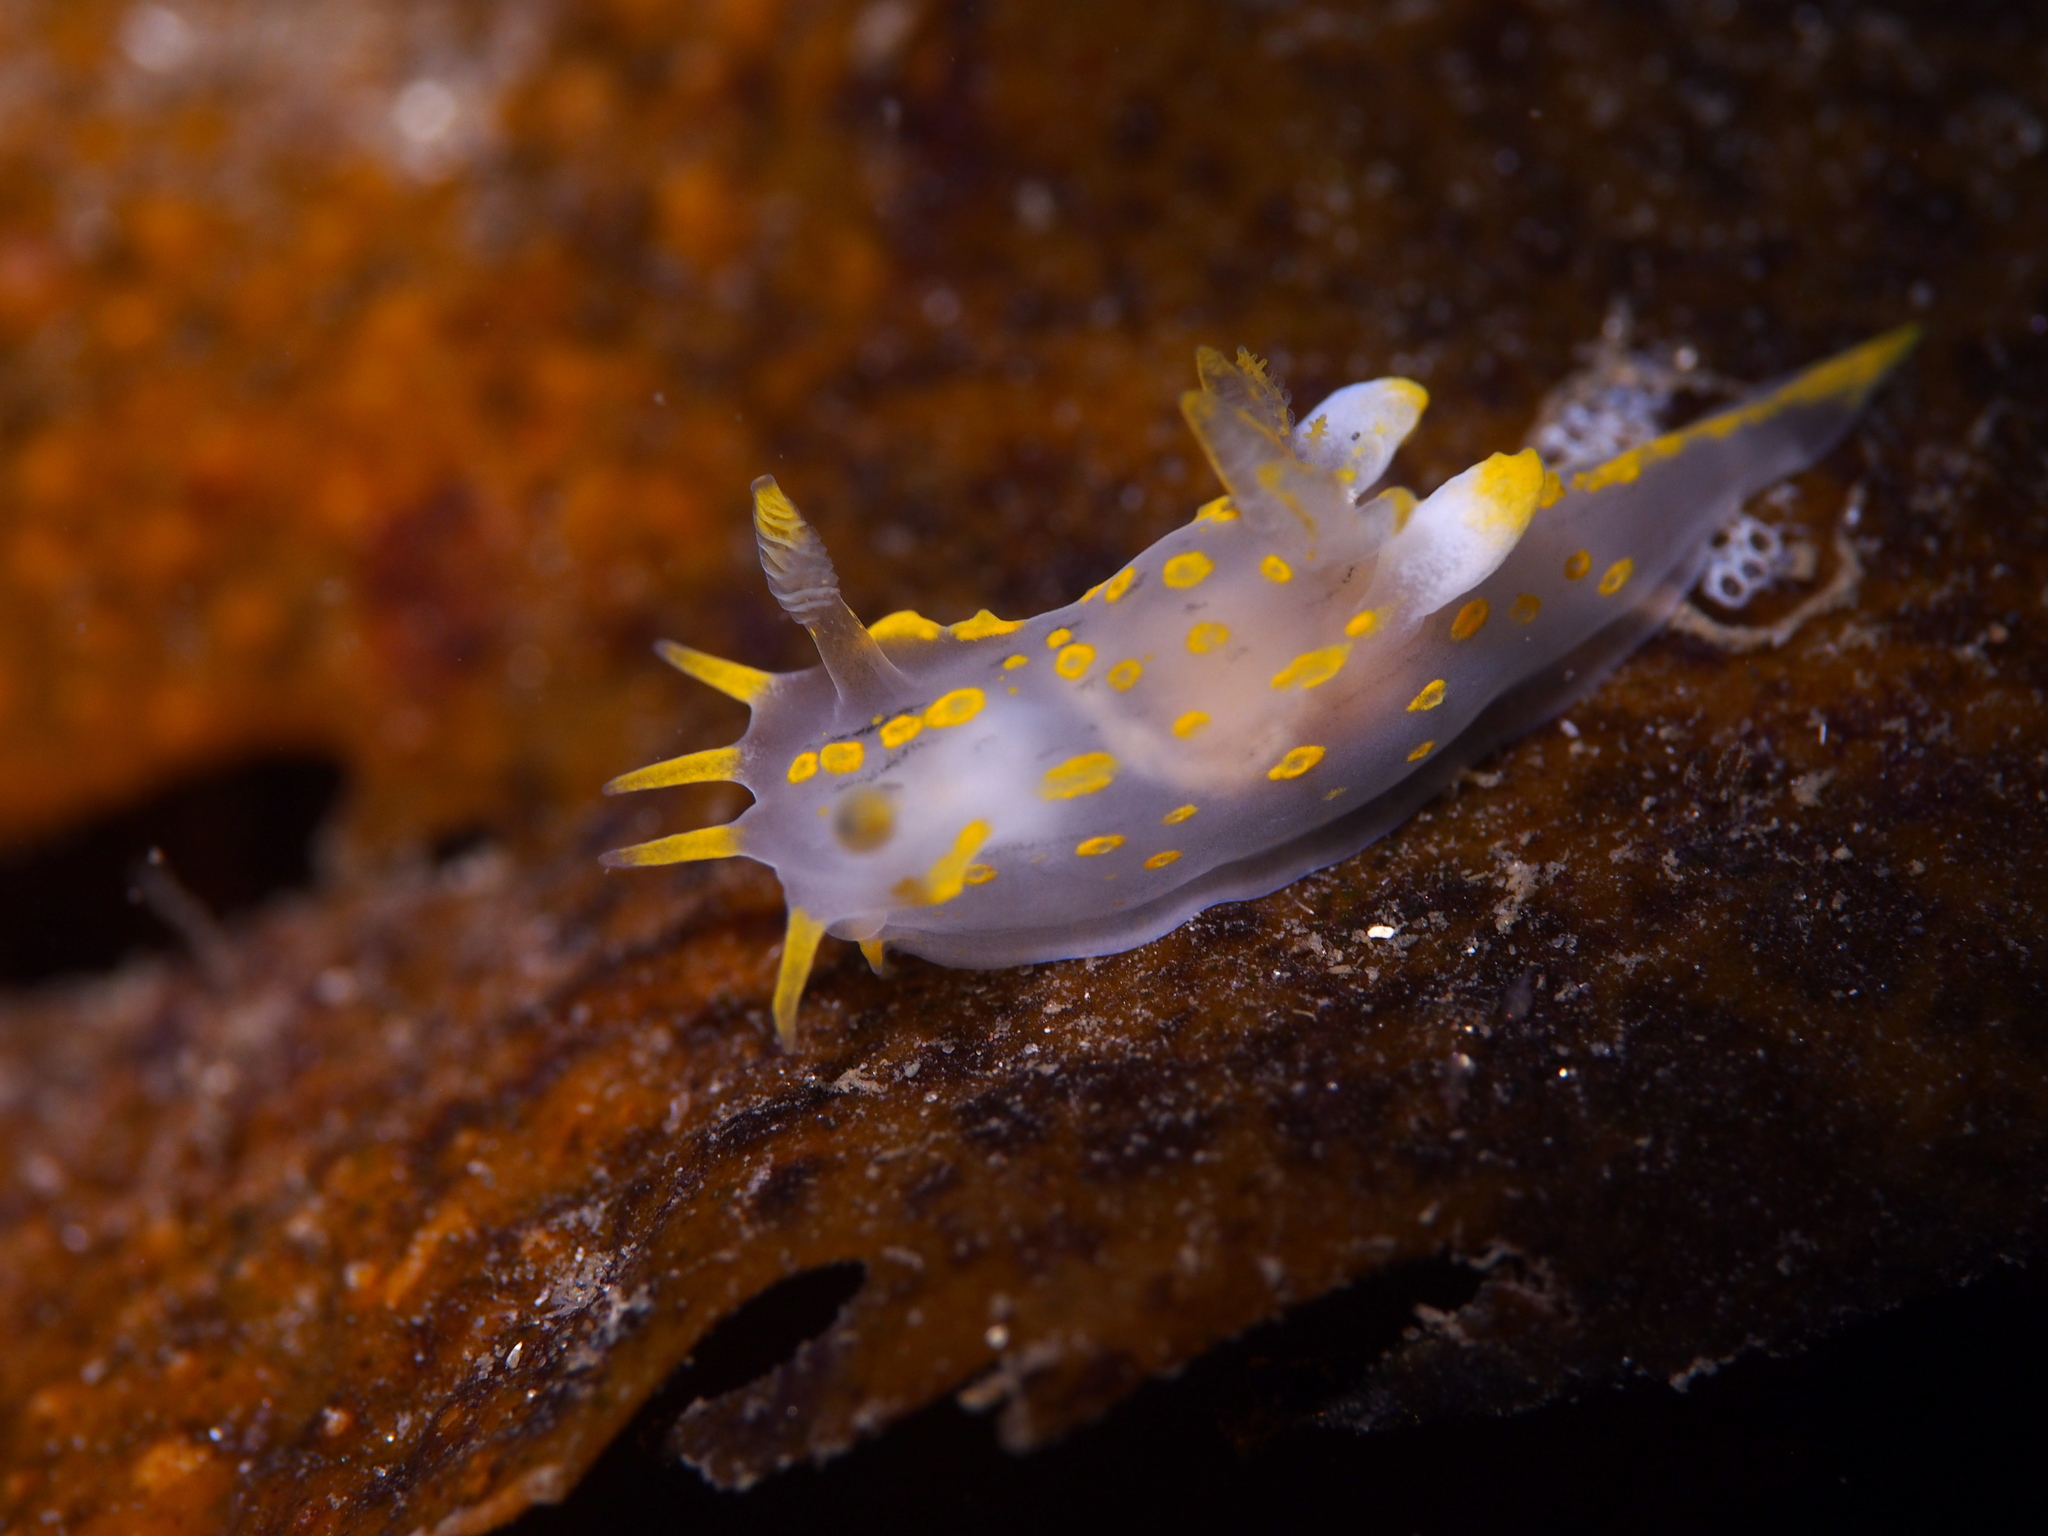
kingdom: Animalia
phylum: Mollusca
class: Gastropoda
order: Nudibranchia
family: Polyceridae
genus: Polycera
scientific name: Polycera quadrilineata
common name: Four-striped polycera
